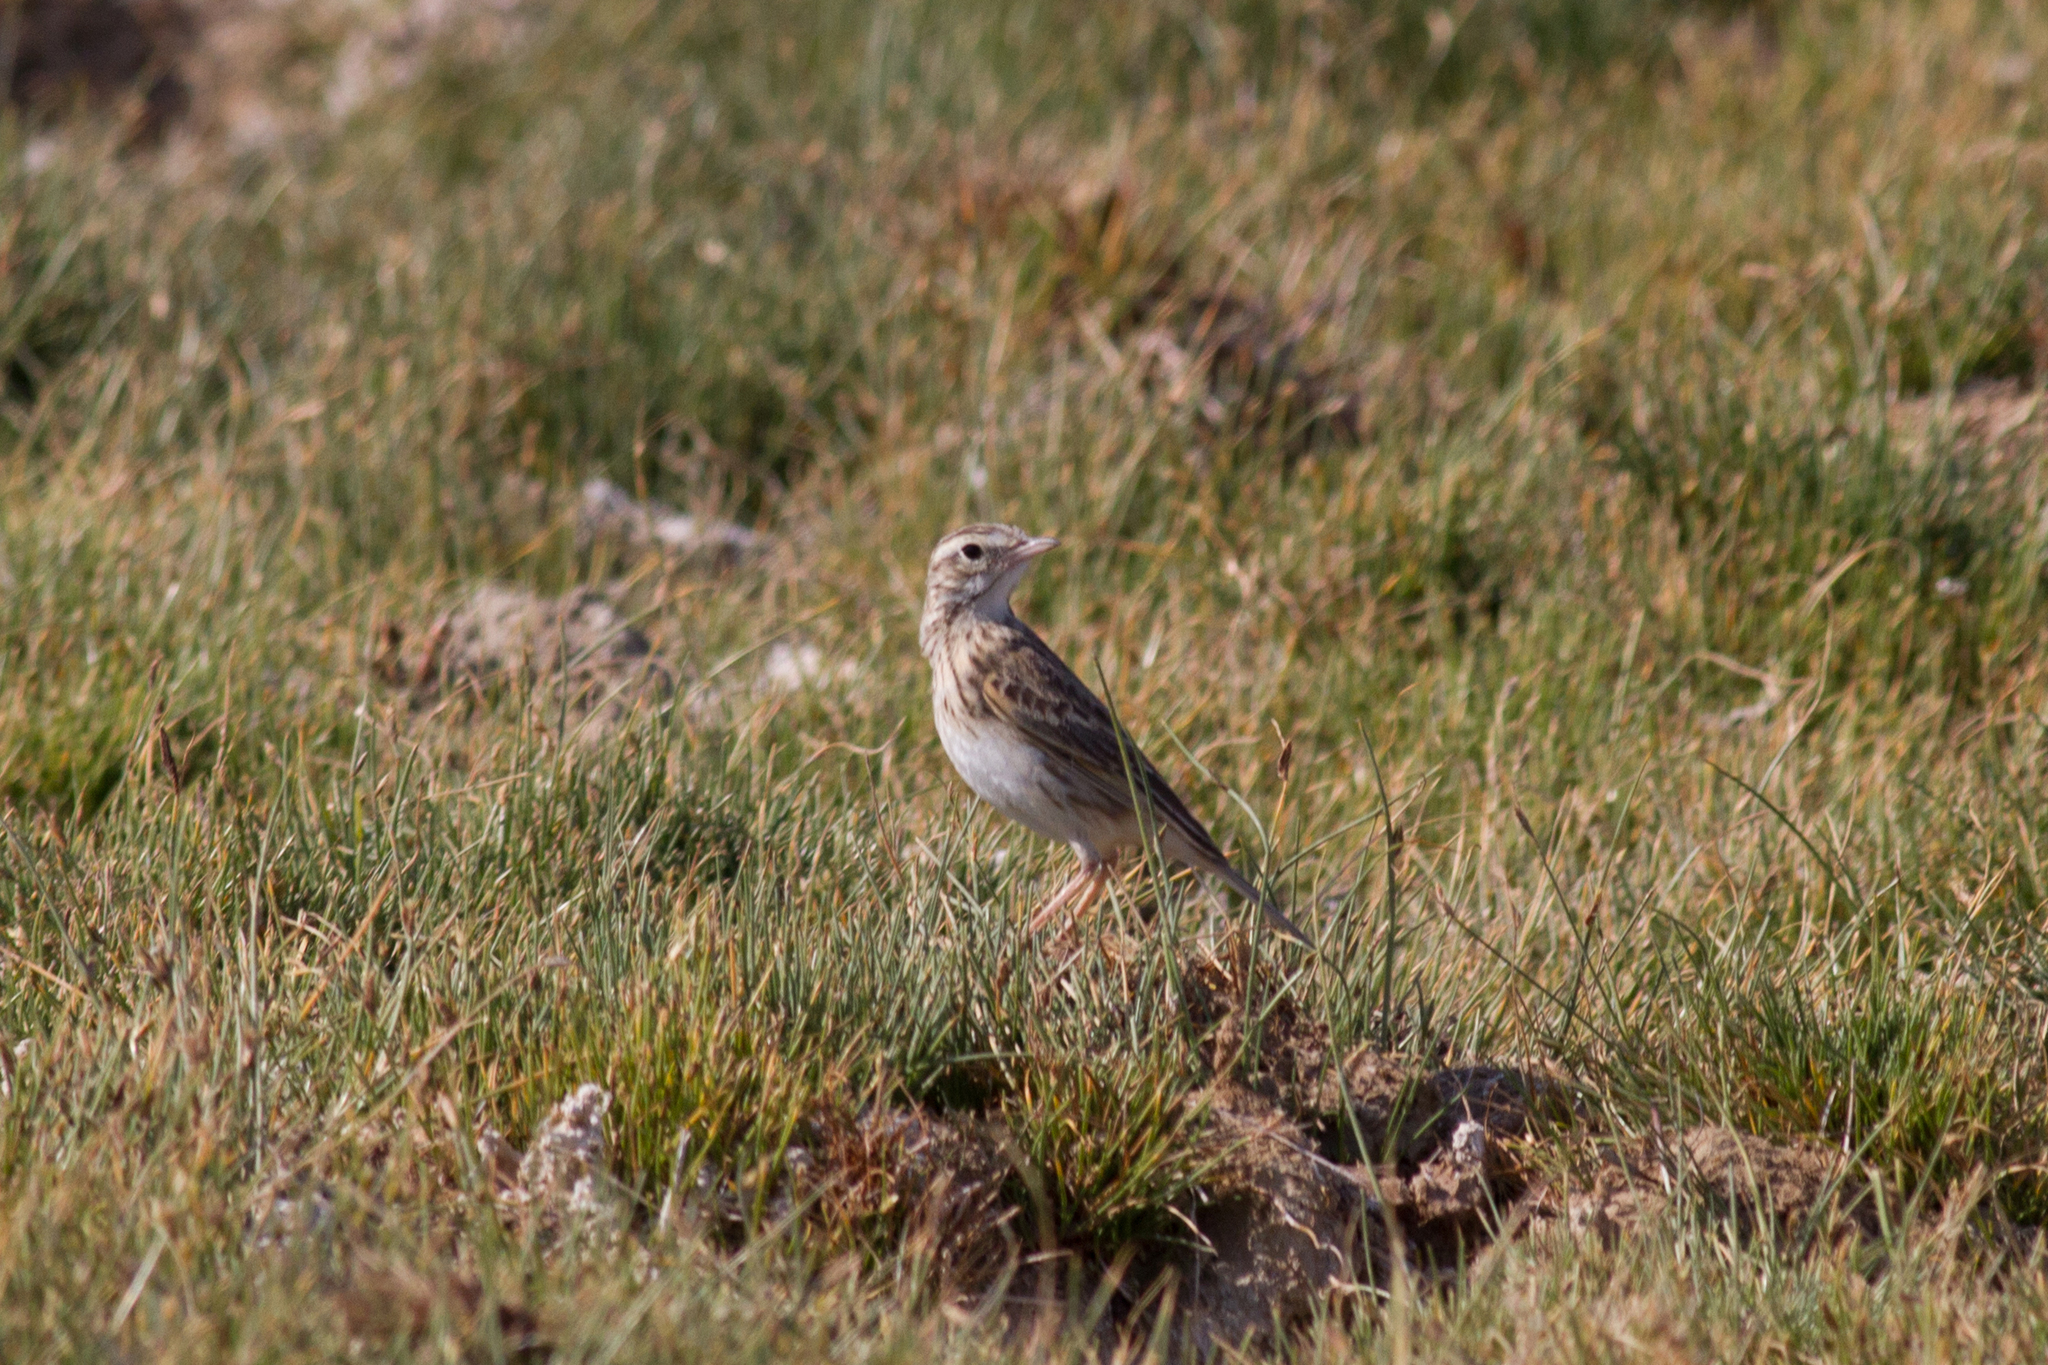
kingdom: Animalia
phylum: Chordata
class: Aves
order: Passeriformes
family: Motacillidae
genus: Anthus
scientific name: Anthus australis
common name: Australian pipit
